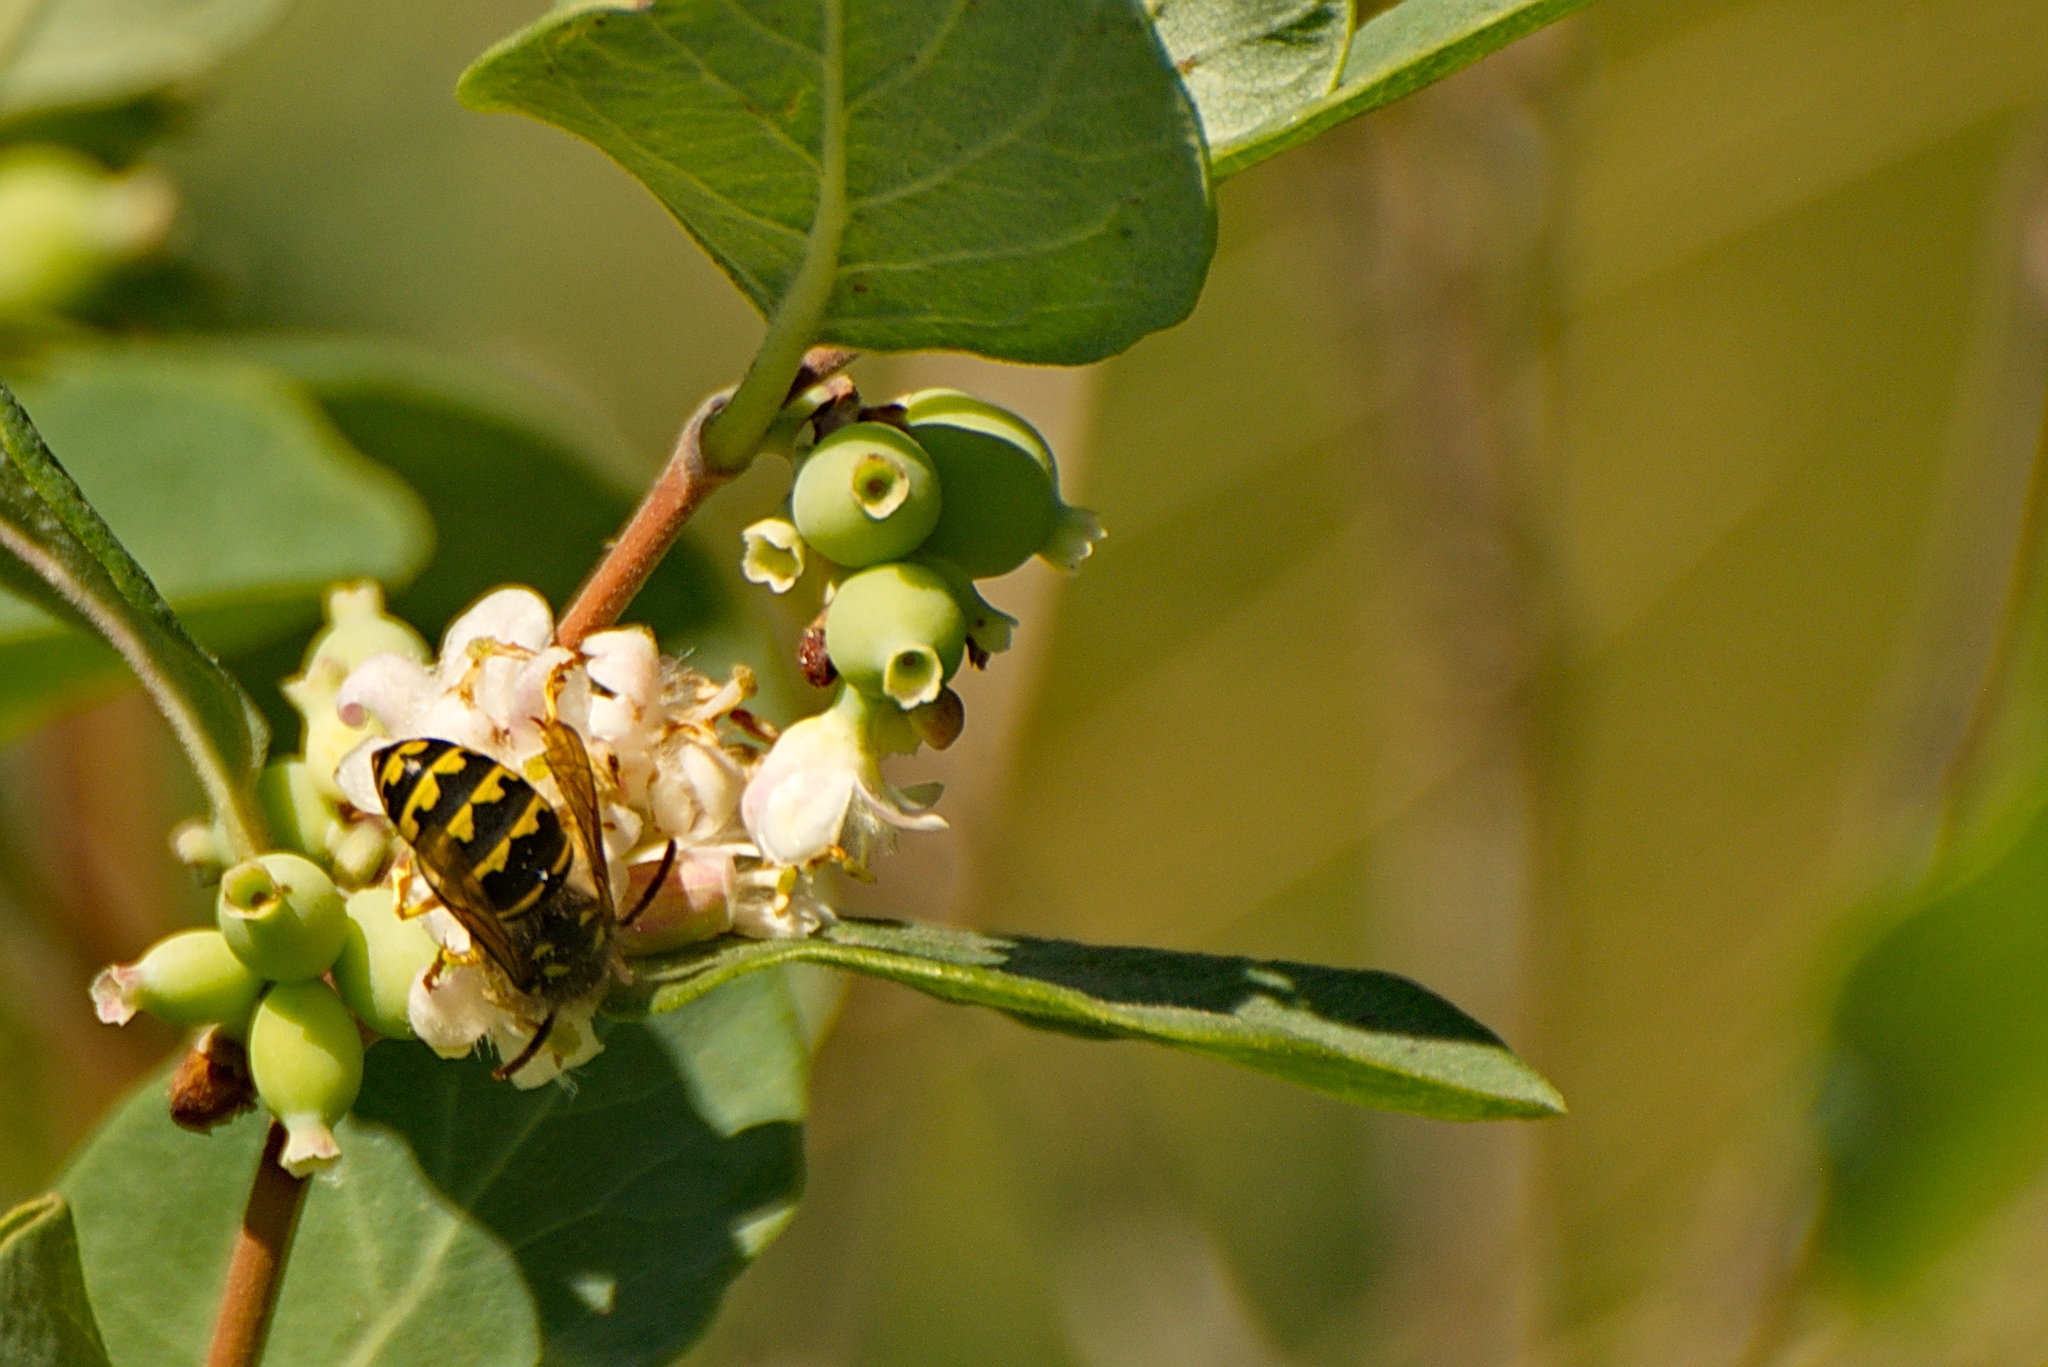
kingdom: Animalia
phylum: Arthropoda
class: Insecta
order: Hymenoptera
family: Vespidae
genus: Dolichovespula
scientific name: Dolichovespula arenaria
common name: Aerial yellowjacket
